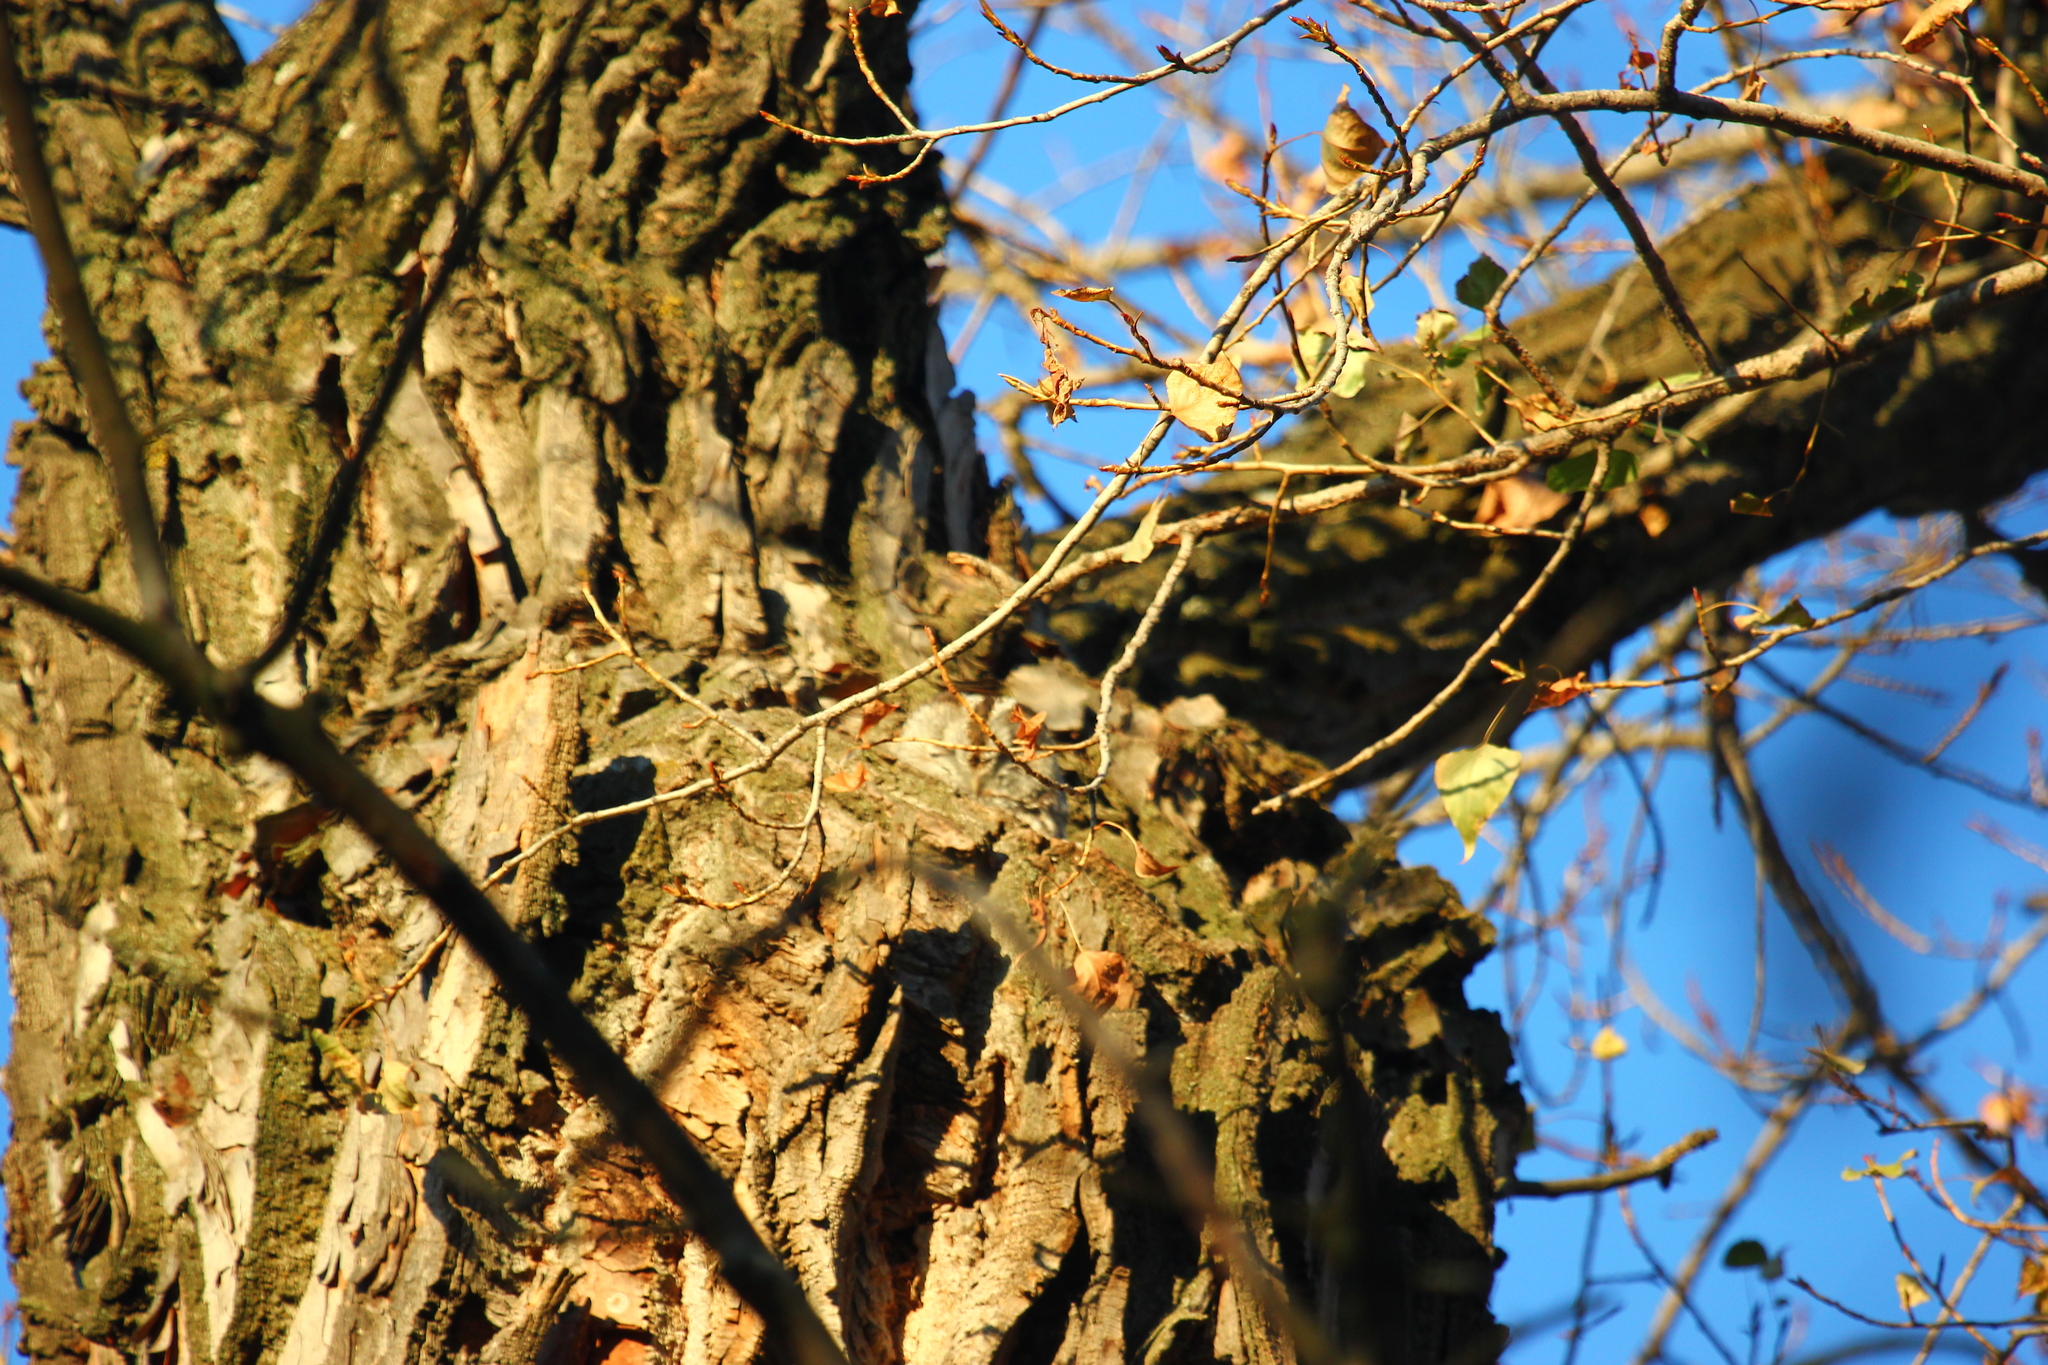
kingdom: Animalia
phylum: Chordata
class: Aves
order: Strigiformes
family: Strigidae
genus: Strix
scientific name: Strix aluco
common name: Tawny owl
